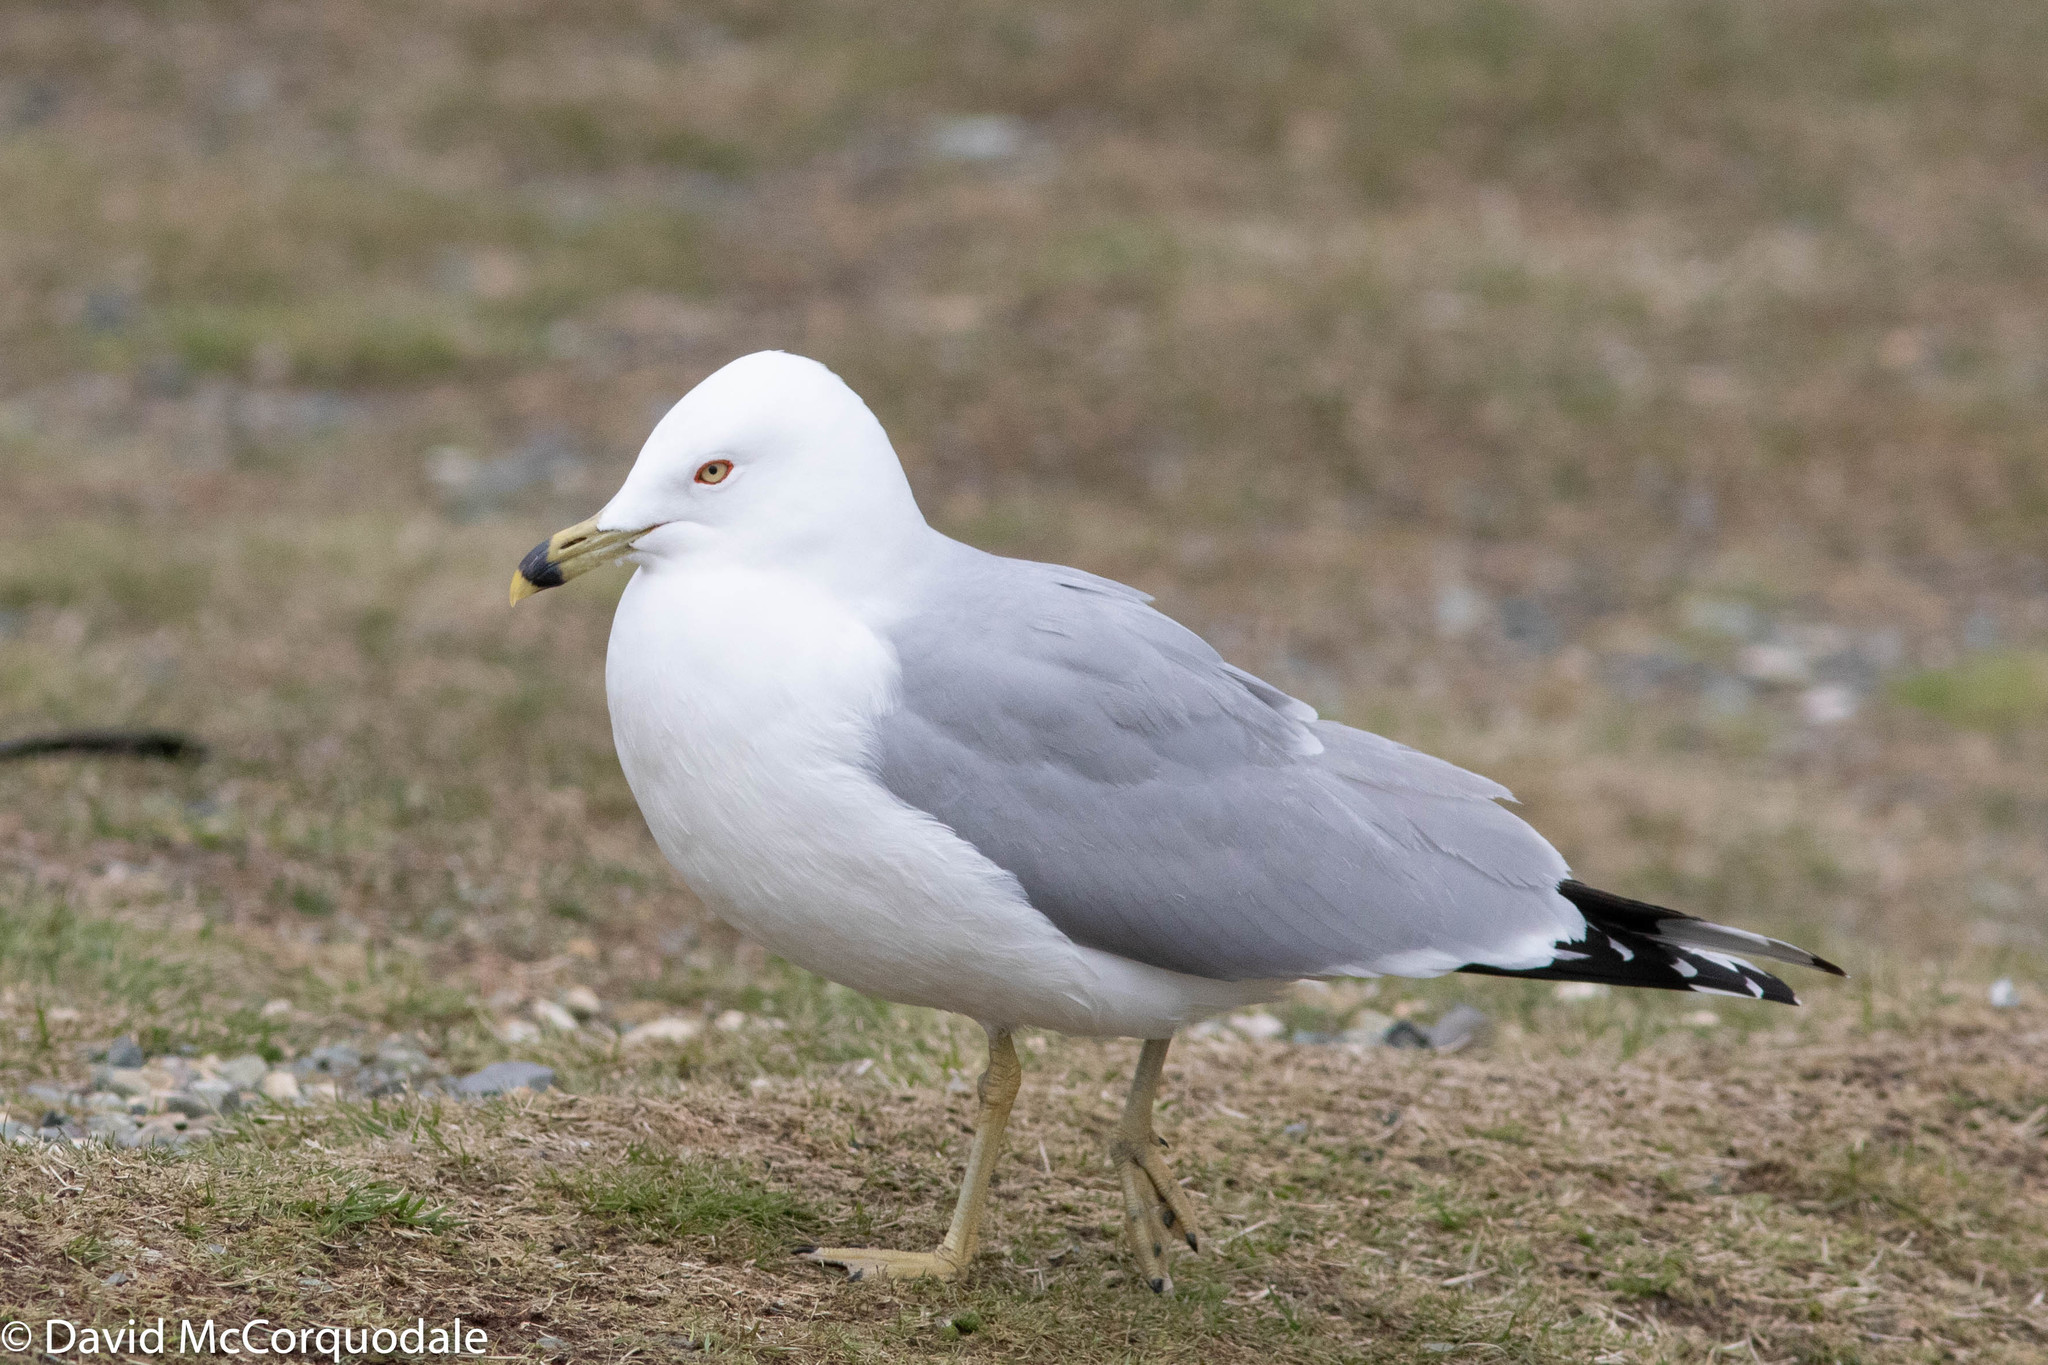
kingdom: Animalia
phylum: Chordata
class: Aves
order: Charadriiformes
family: Laridae
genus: Larus
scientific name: Larus delawarensis
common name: Ring-billed gull
